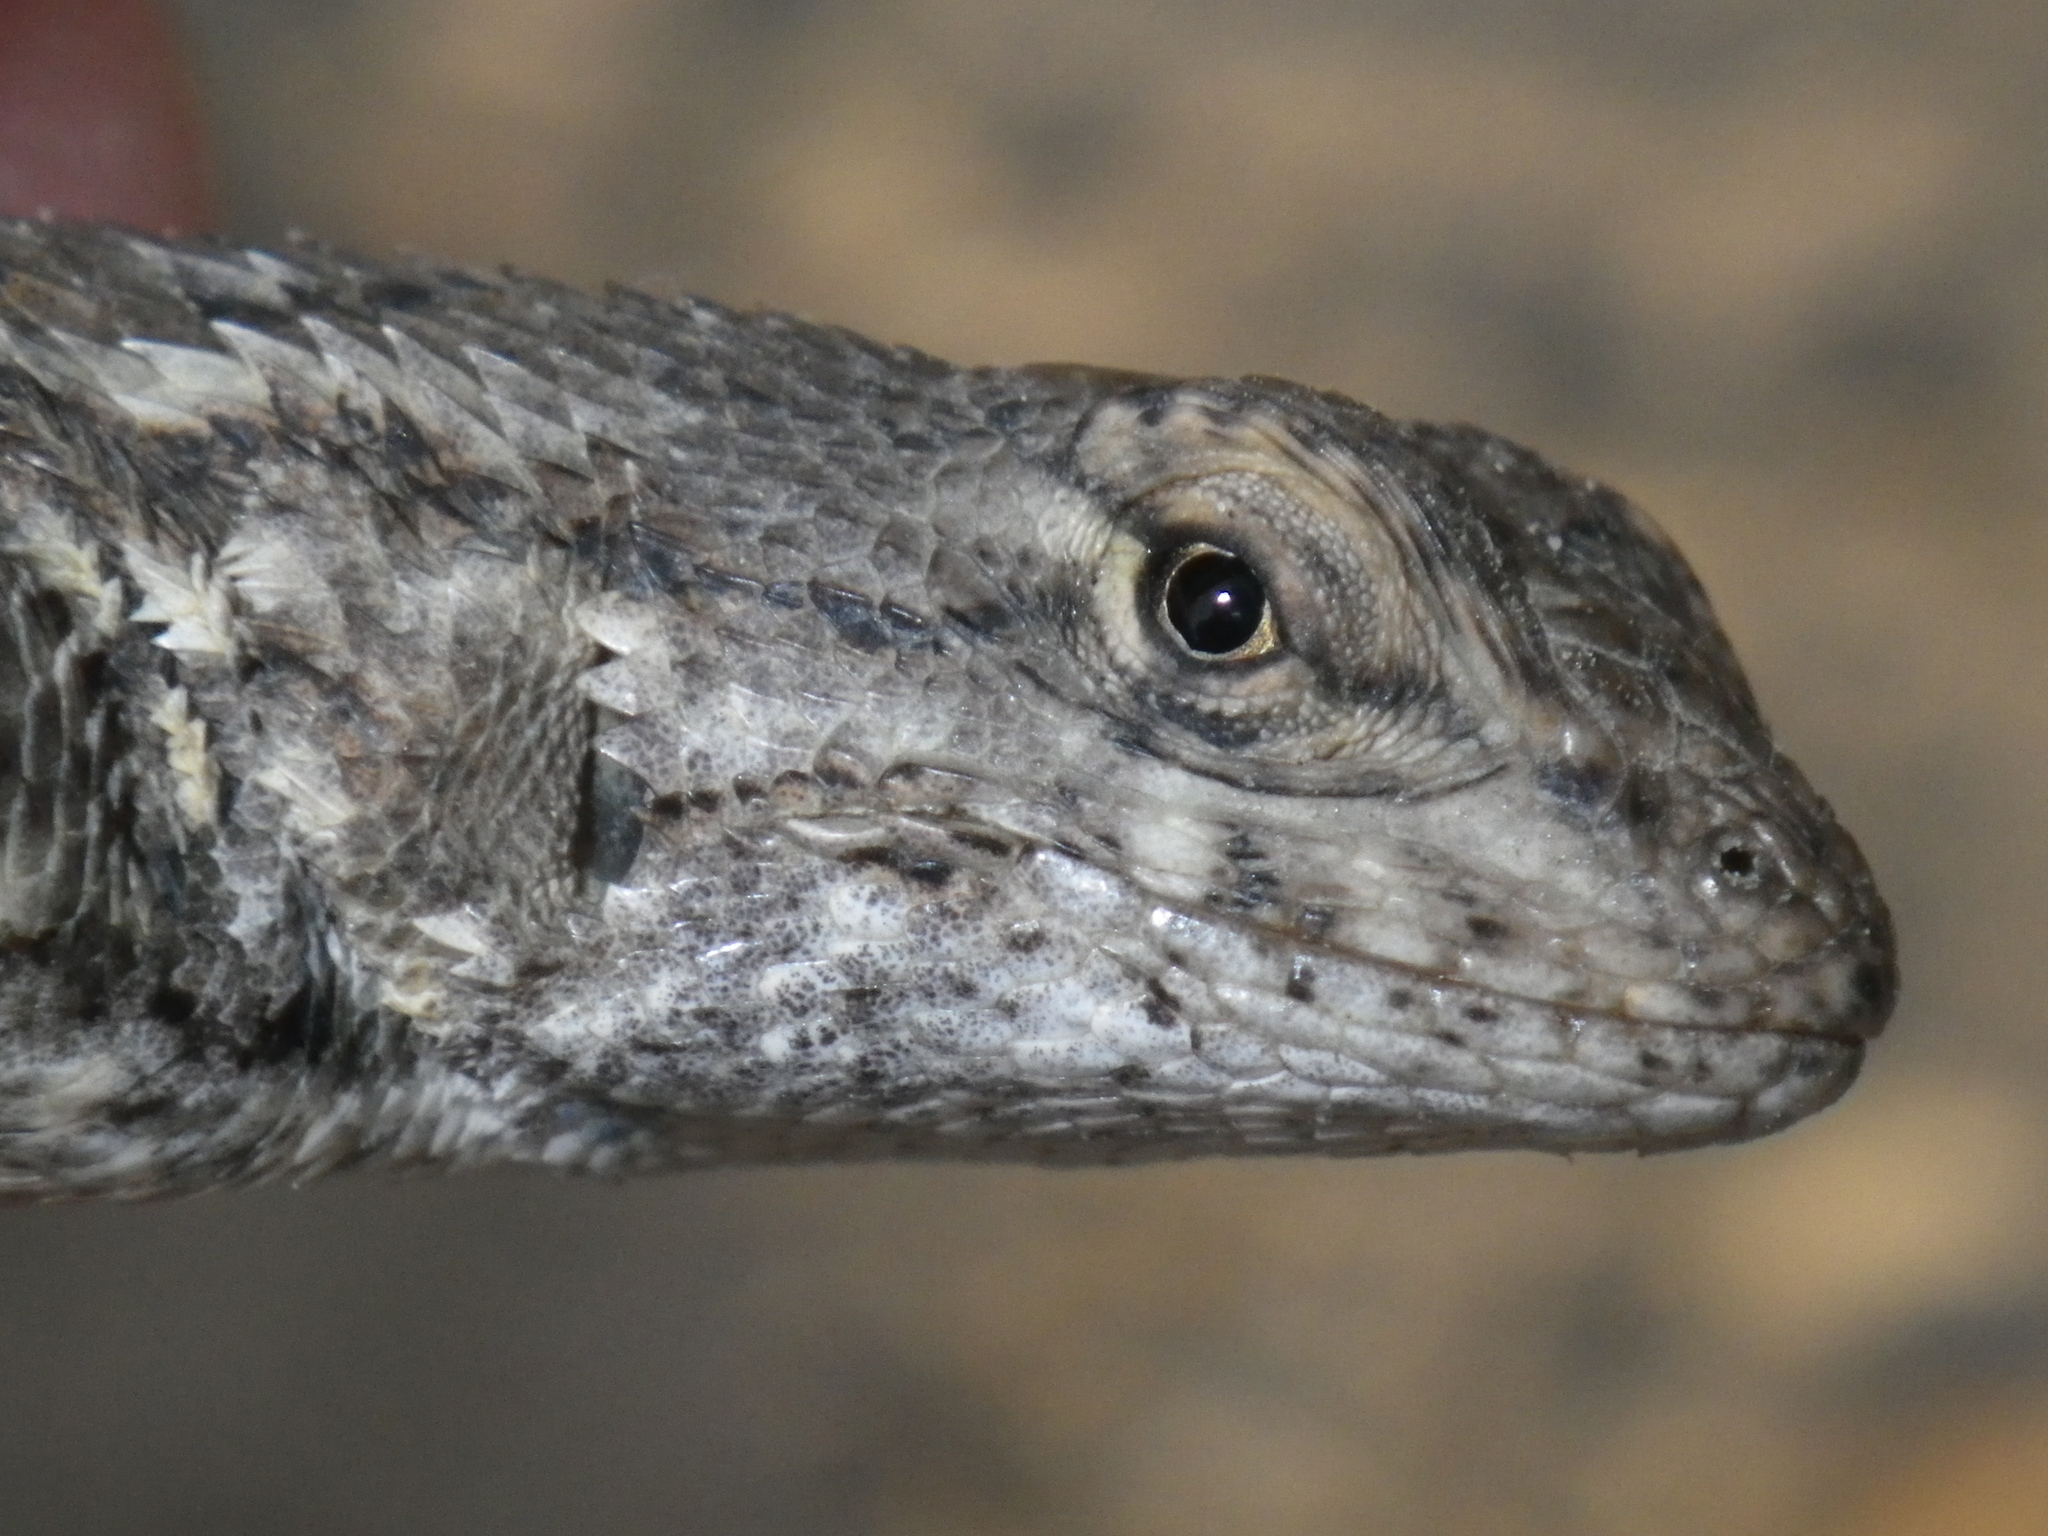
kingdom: Animalia
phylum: Chordata
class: Squamata
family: Phrynosomatidae
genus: Sceloporus
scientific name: Sceloporus occidentalis
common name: Western fence lizard
